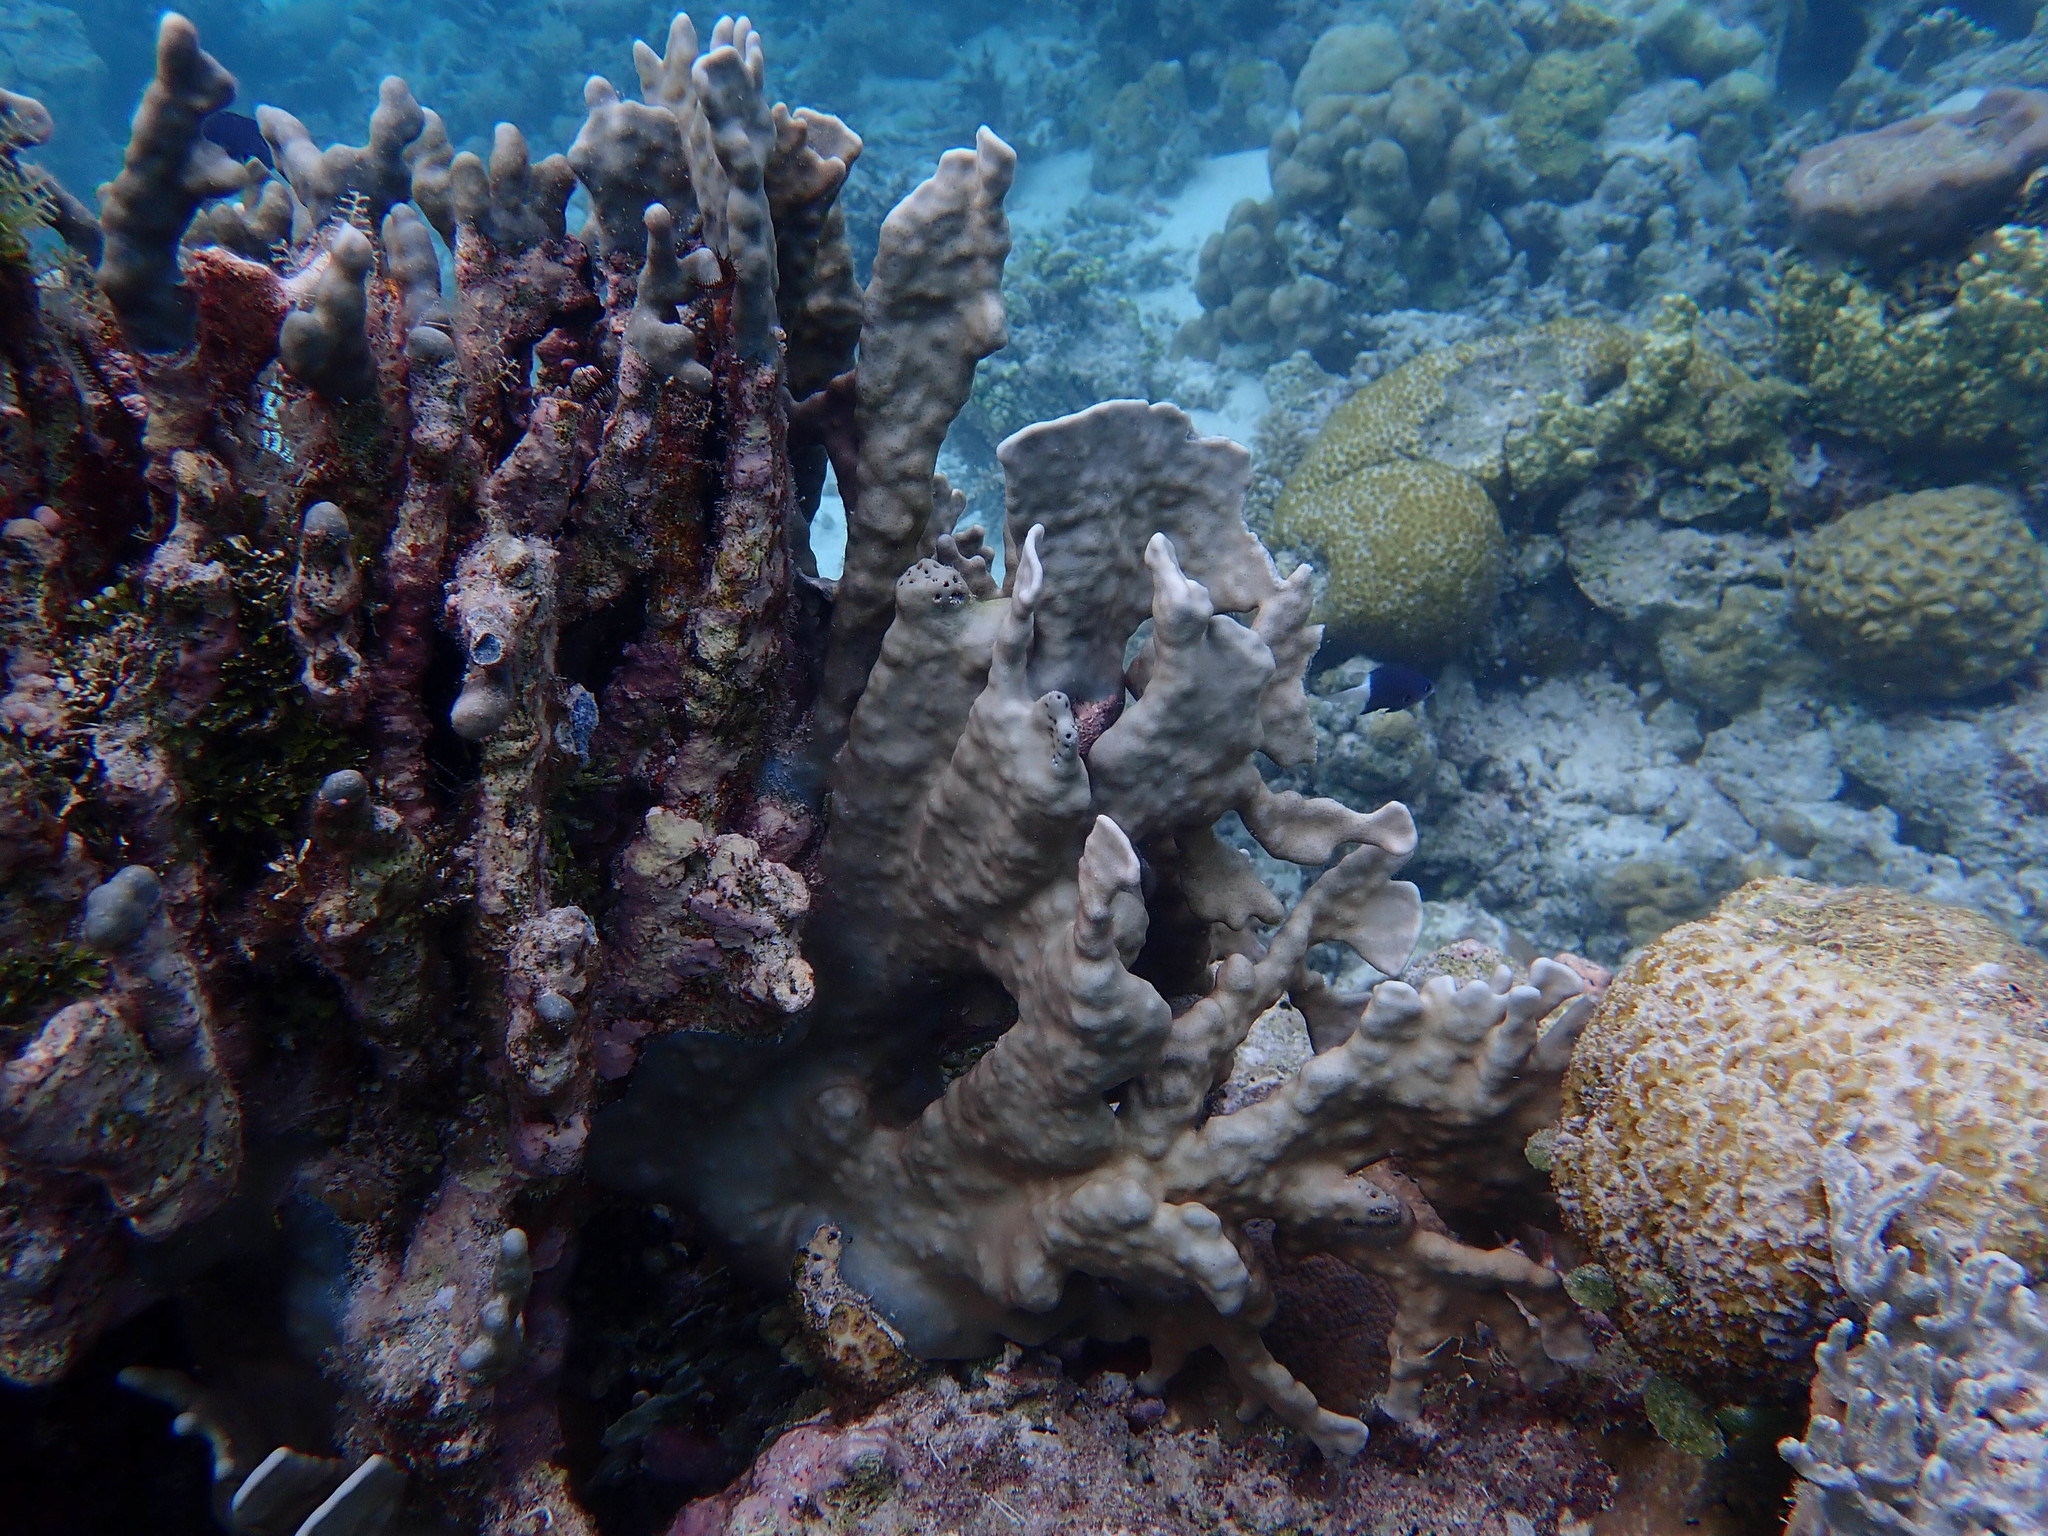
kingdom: Animalia
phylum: Cnidaria
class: Anthozoa
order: Scleralcyonacea
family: Helioporidae
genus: Heliopora
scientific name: Heliopora coerulea
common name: Blue coral
